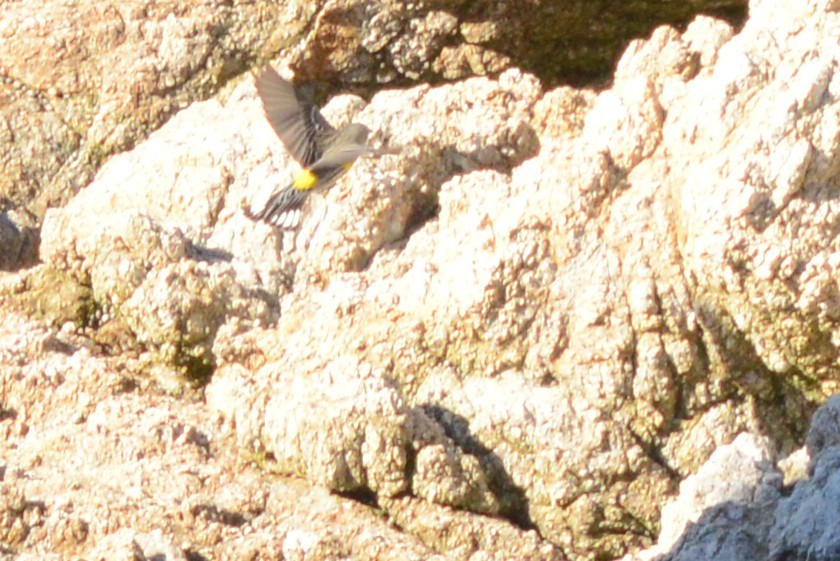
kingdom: Animalia
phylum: Chordata
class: Aves
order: Passeriformes
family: Parulidae
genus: Setophaga
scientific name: Setophaga coronata
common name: Myrtle warbler
